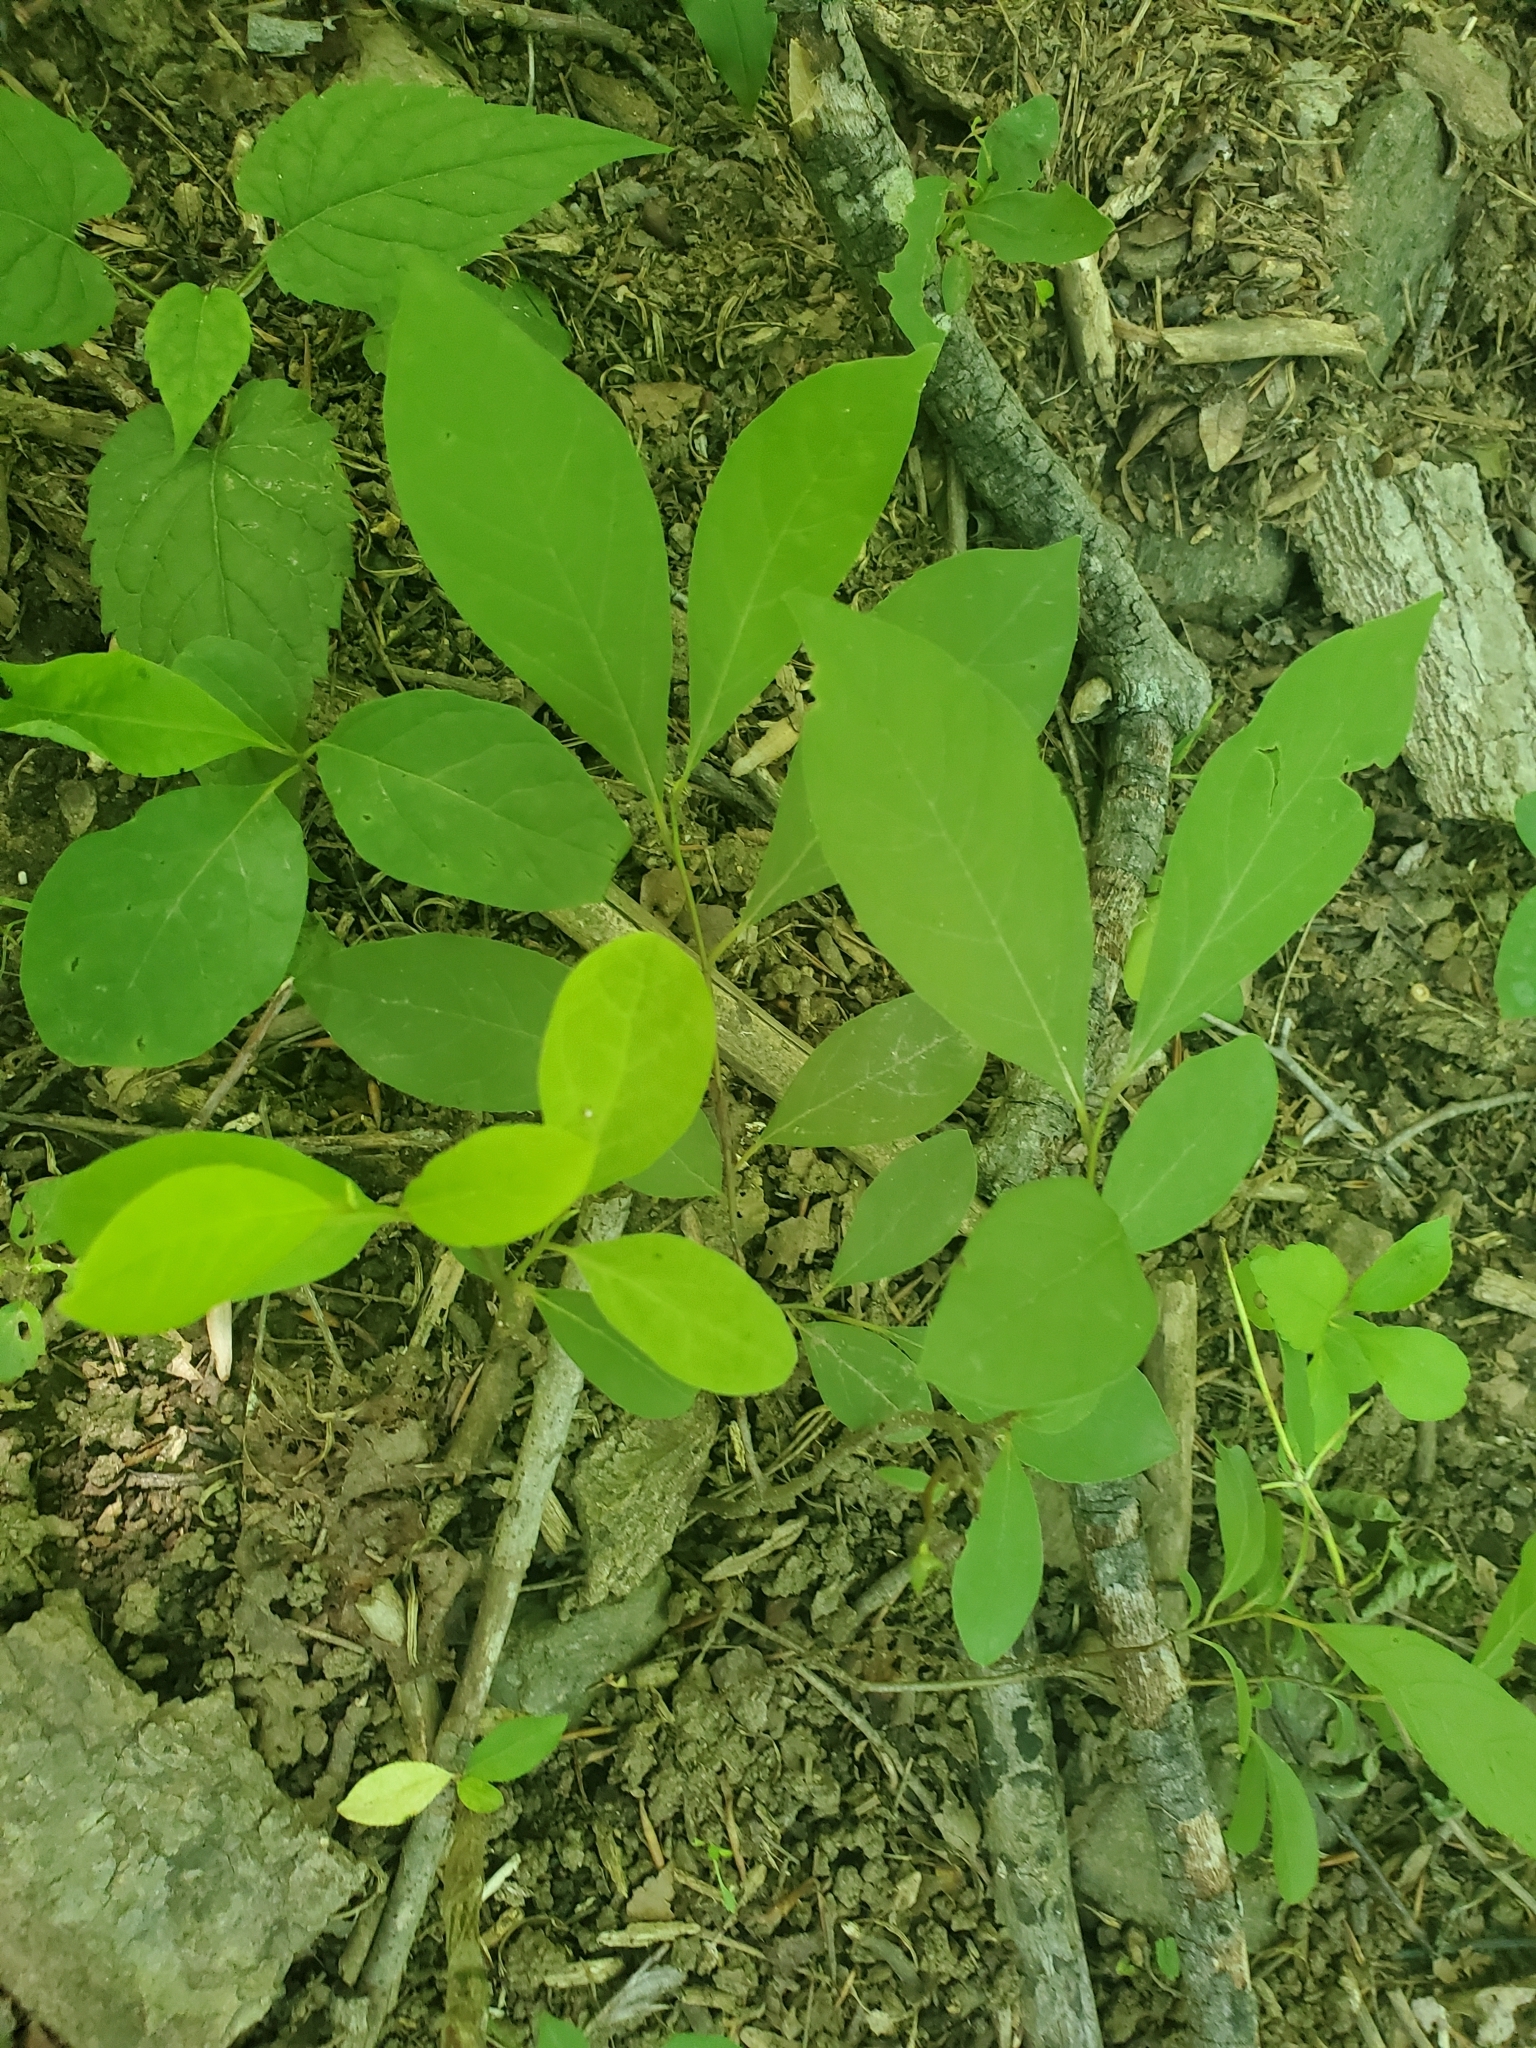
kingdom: Plantae
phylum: Tracheophyta
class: Magnoliopsida
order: Laurales
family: Lauraceae
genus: Lindera
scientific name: Lindera benzoin
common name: Spicebush
